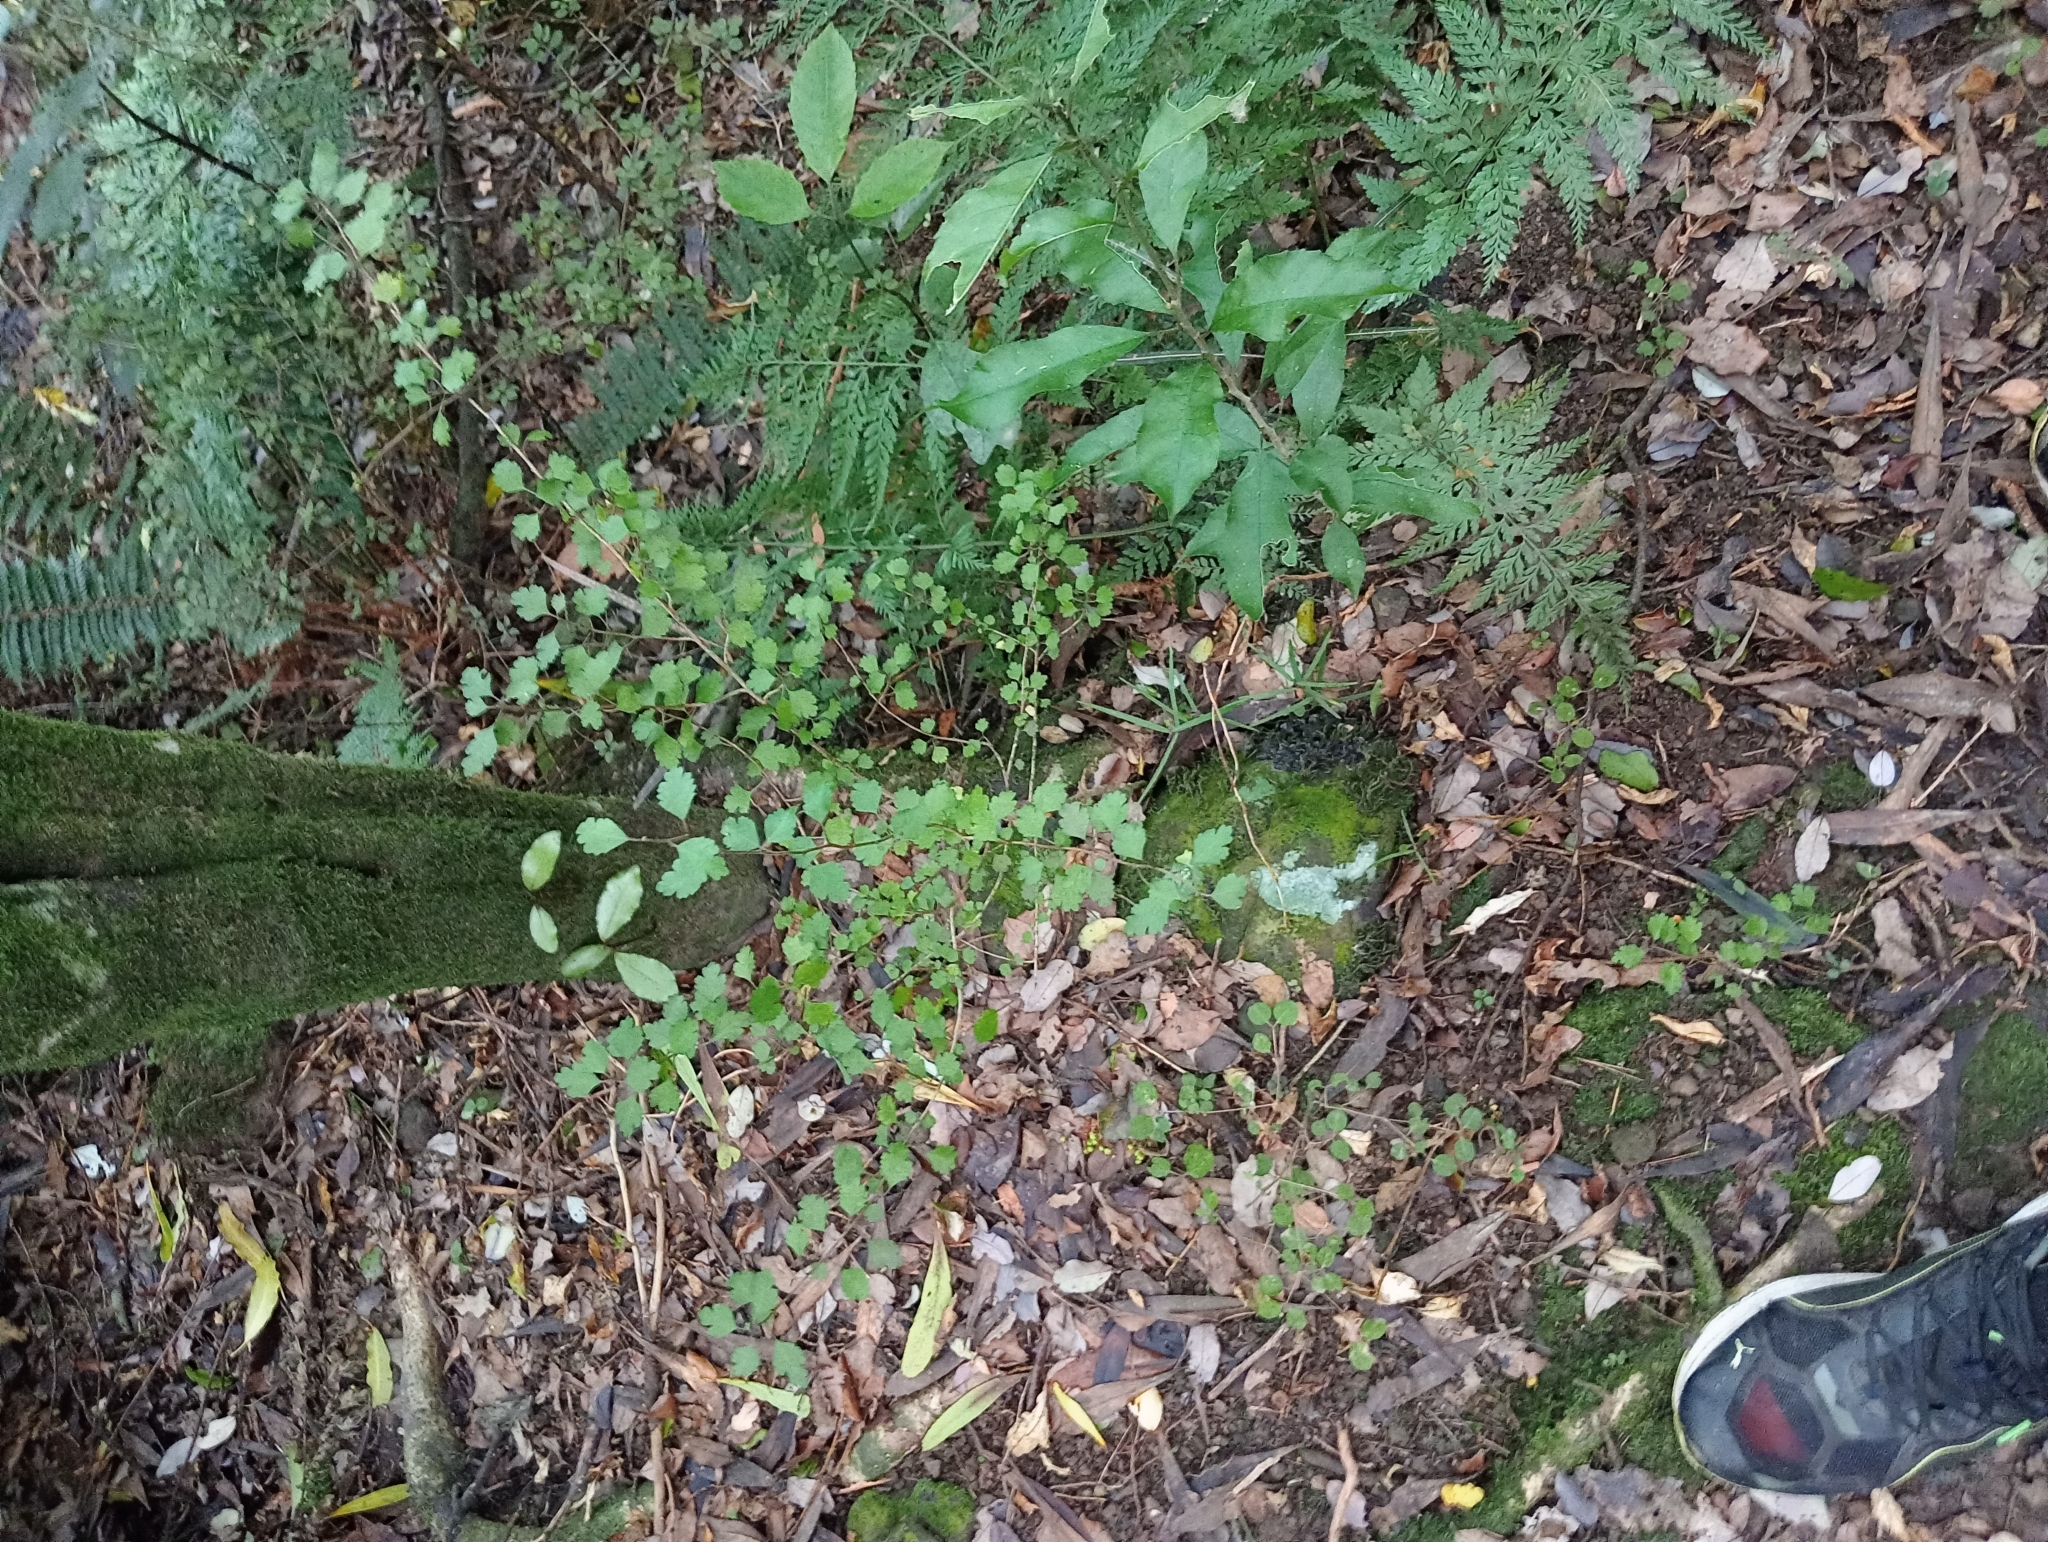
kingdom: Plantae
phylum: Tracheophyta
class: Magnoliopsida
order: Malvales
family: Malvaceae
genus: Plagianthus
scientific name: Plagianthus regius
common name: Manatu
